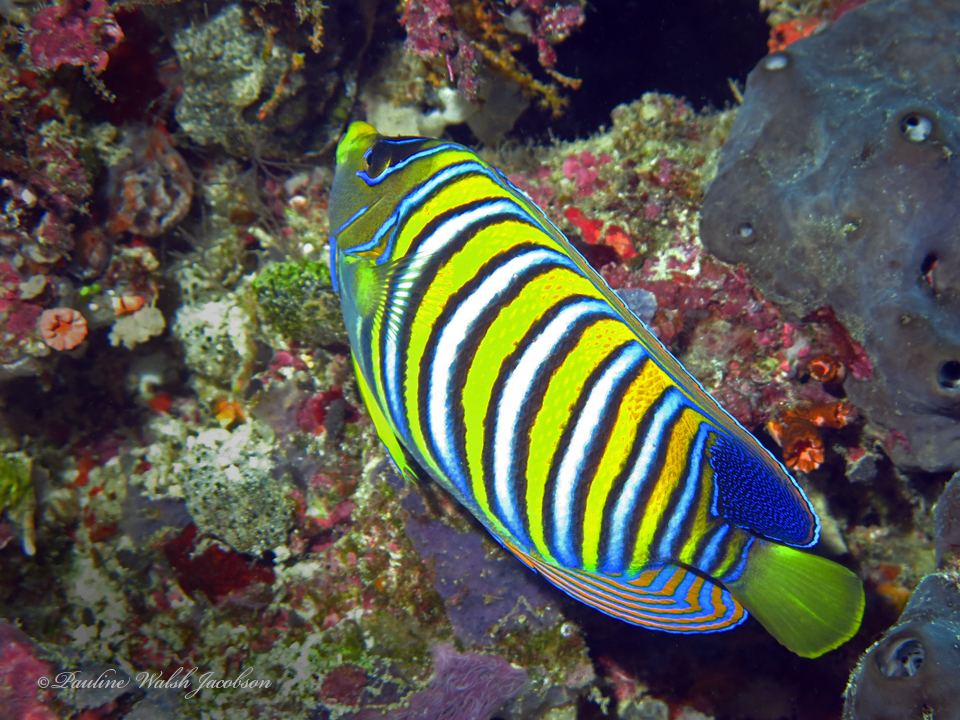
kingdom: Animalia
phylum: Chordata
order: Perciformes
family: Pomacanthidae
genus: Pygoplites
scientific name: Pygoplites diacanthus
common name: Regal angelfish
